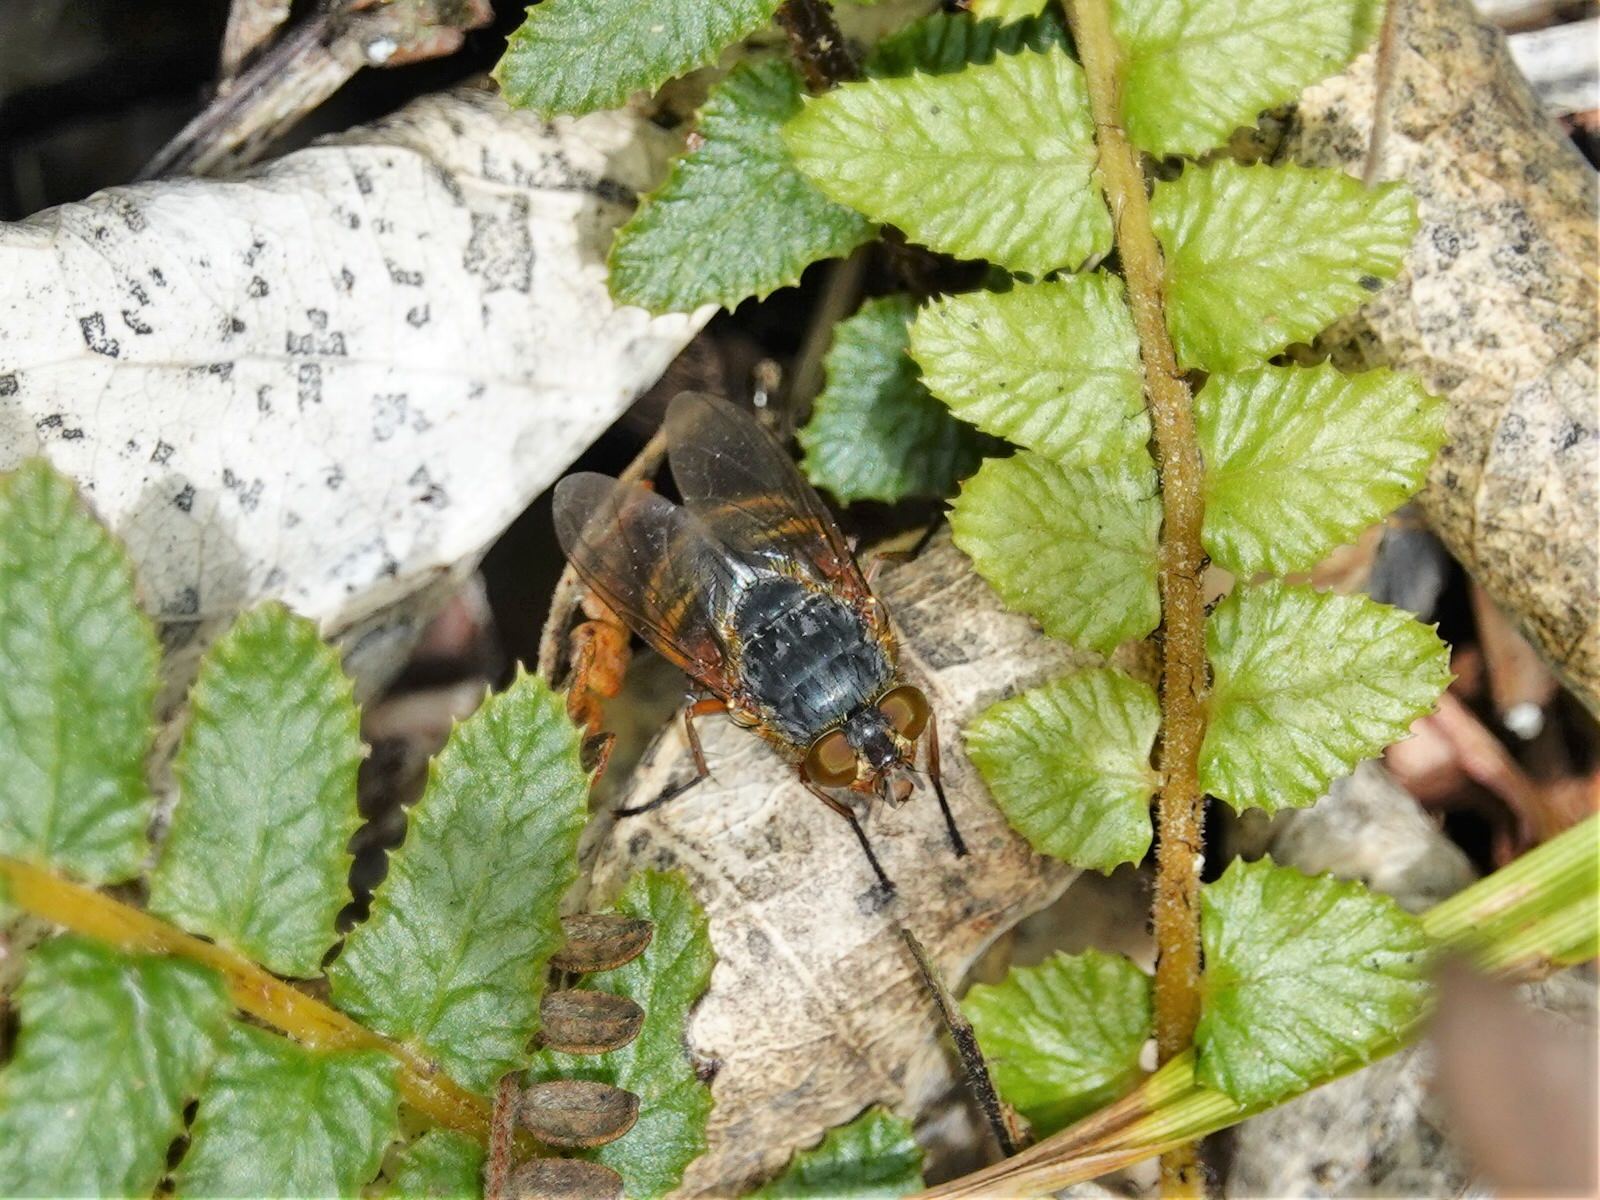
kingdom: Animalia
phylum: Arthropoda
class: Insecta
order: Diptera
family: Calliphoridae
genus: Calliphora
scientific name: Calliphora hilli
